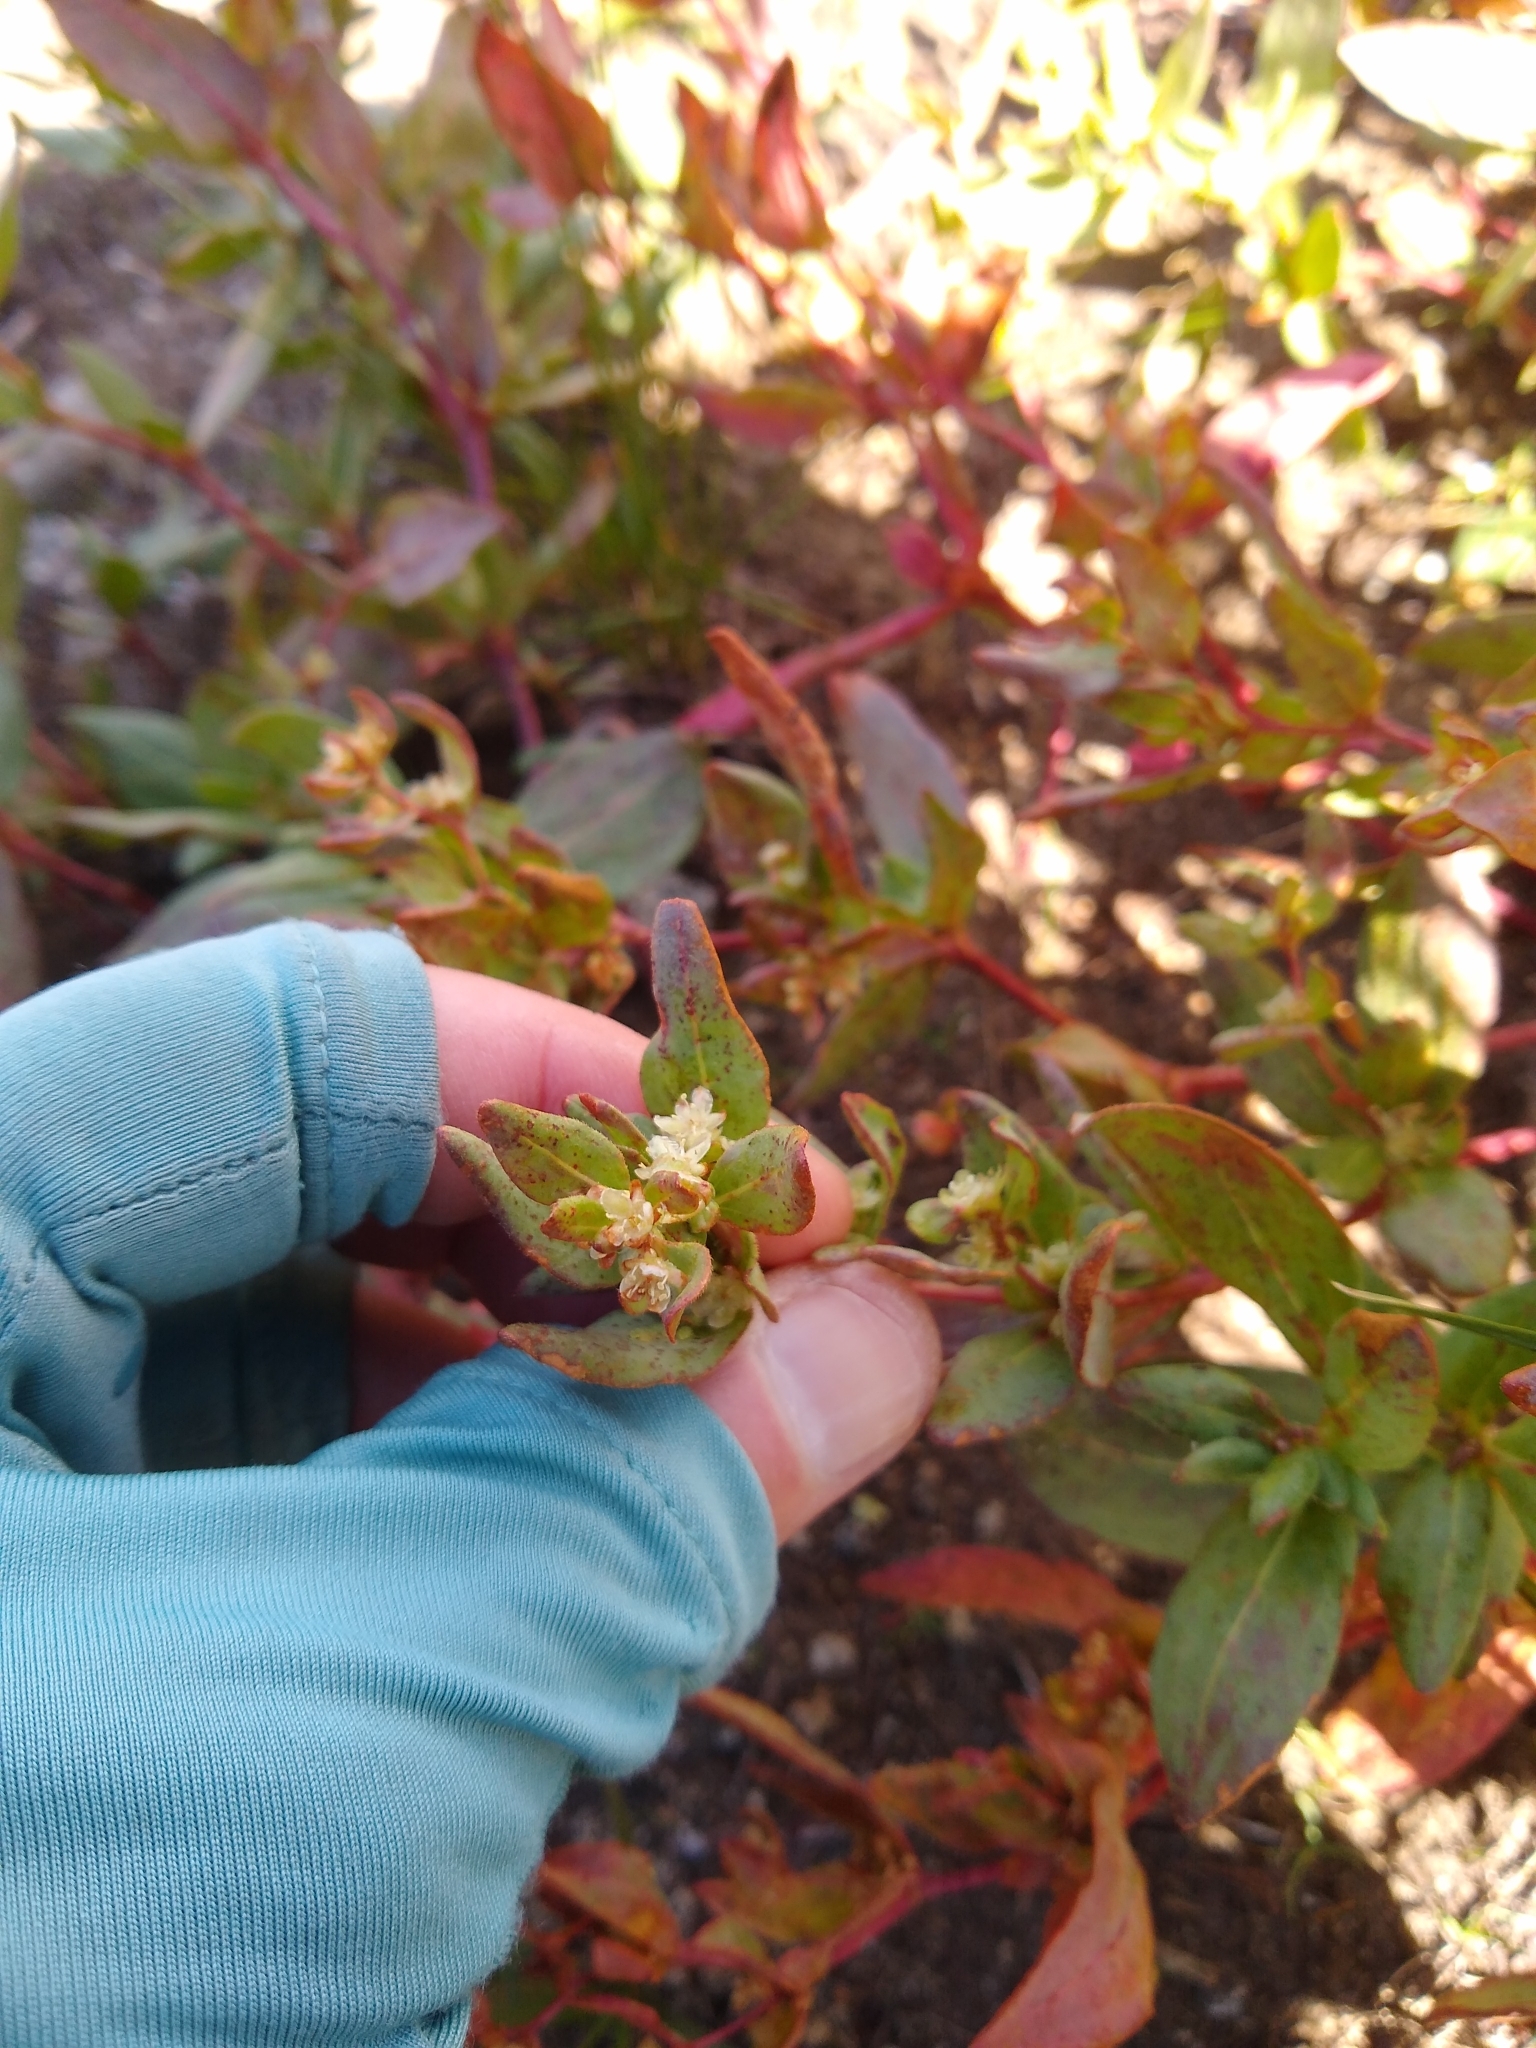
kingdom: Plantae
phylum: Tracheophyta
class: Magnoliopsida
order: Caryophyllales
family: Polygonaceae
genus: Koenigia
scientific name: Koenigia davisiae
